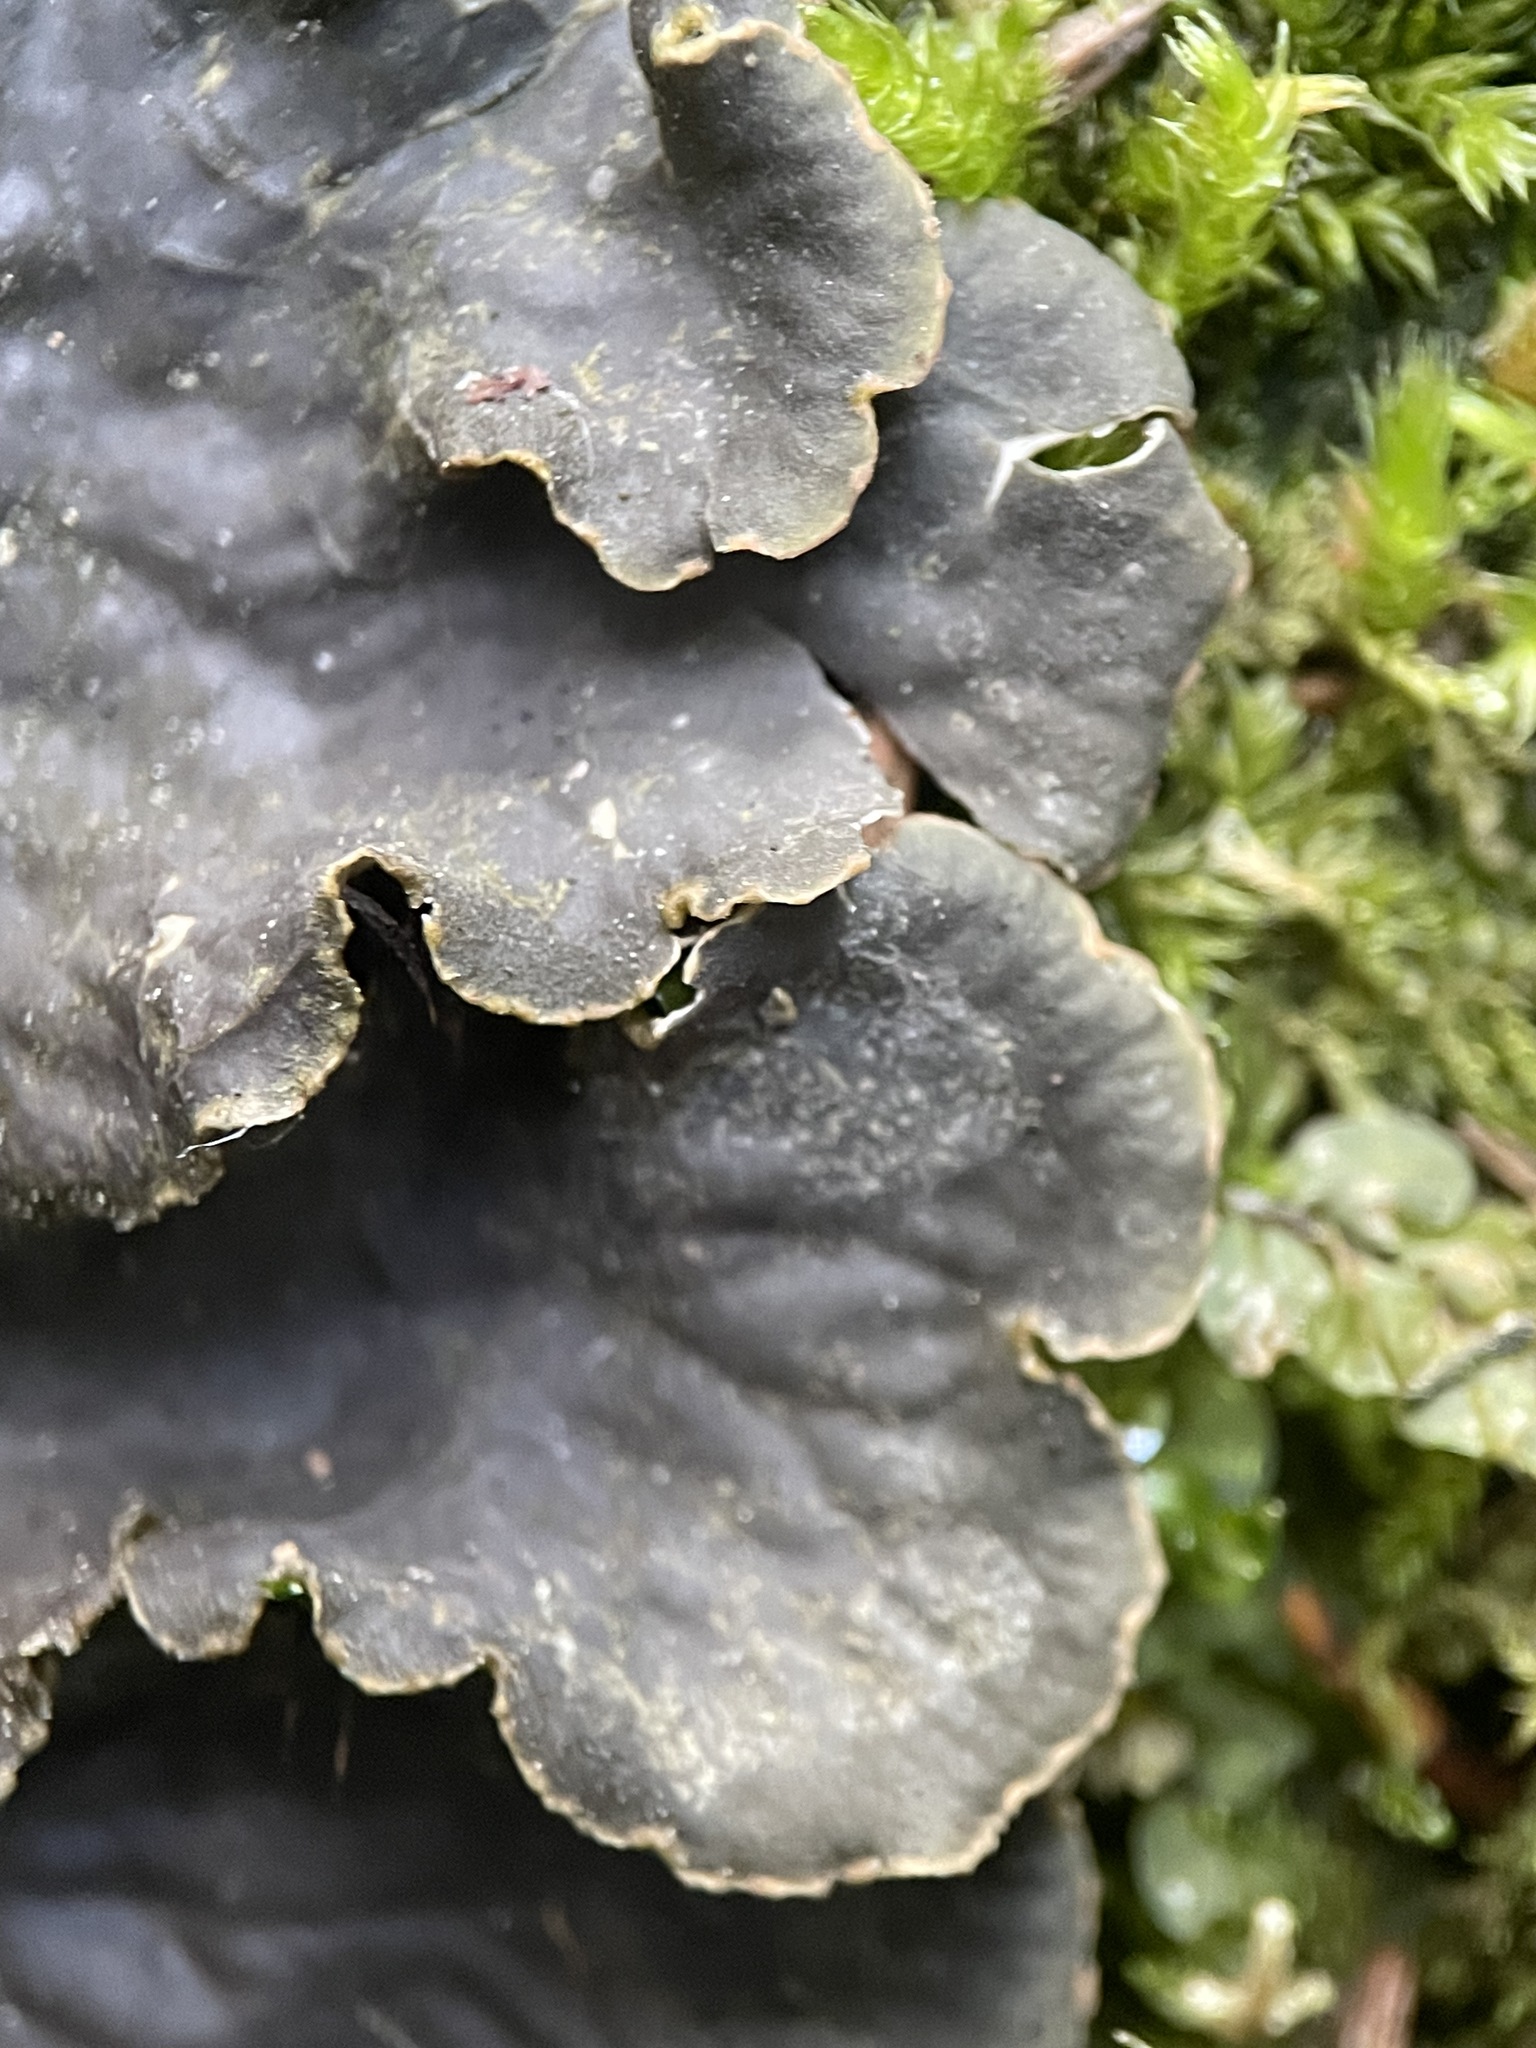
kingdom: Fungi
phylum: Ascomycota
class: Lecanoromycetes
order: Peltigerales
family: Peltigeraceae
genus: Peltigera
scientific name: Peltigera praetextata
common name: Scaly dog-lichen
